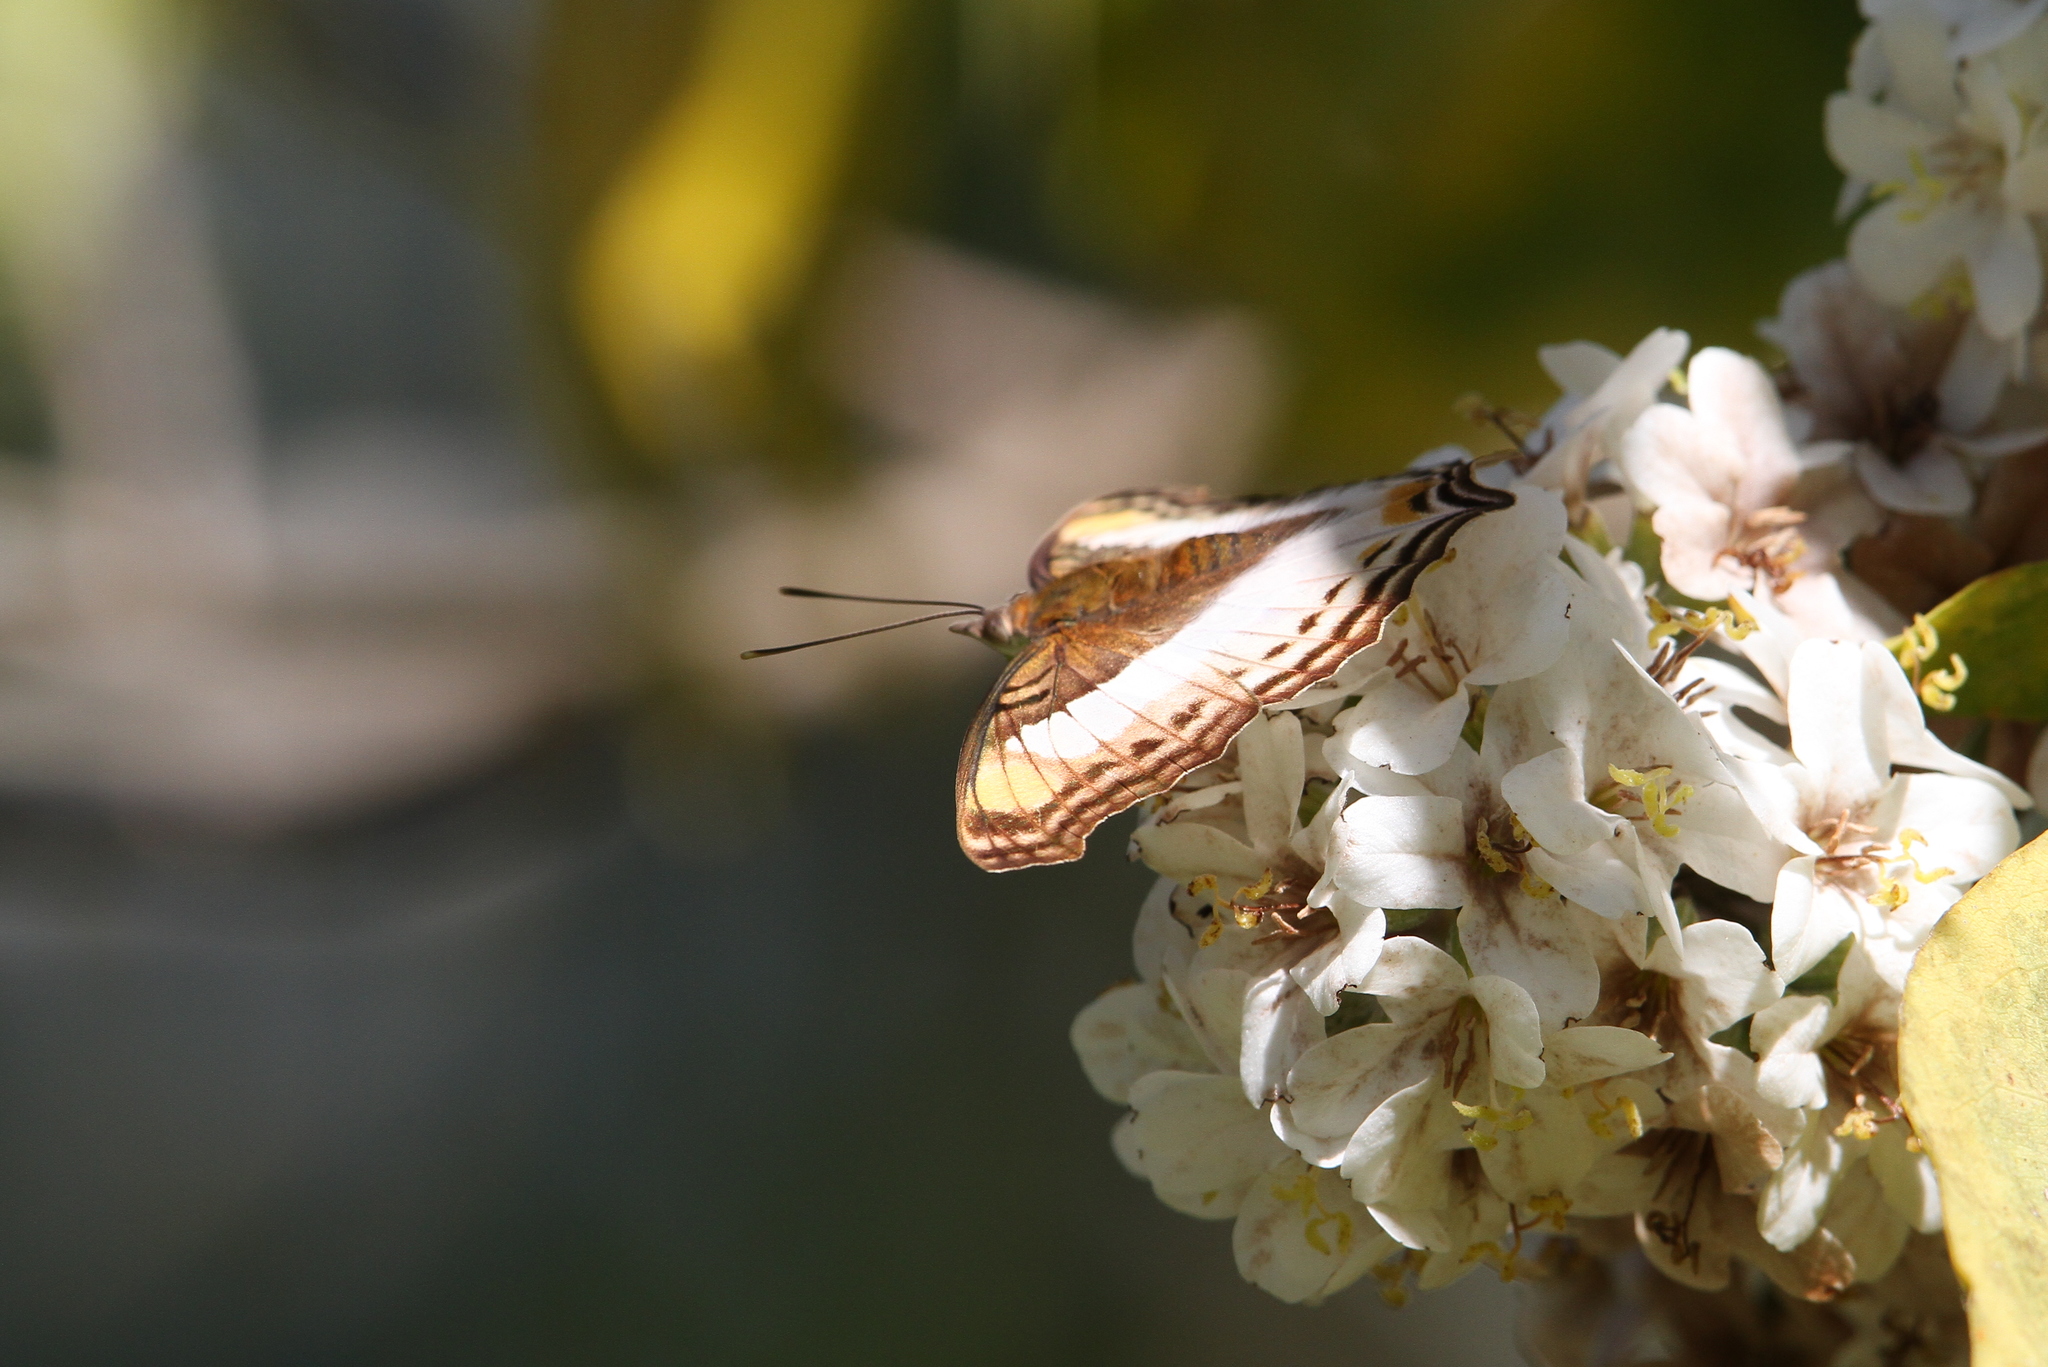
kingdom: Animalia
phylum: Arthropoda
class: Insecta
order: Lepidoptera
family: Nymphalidae
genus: Doxocopa
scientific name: Doxocopa laure
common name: Silver emperor
